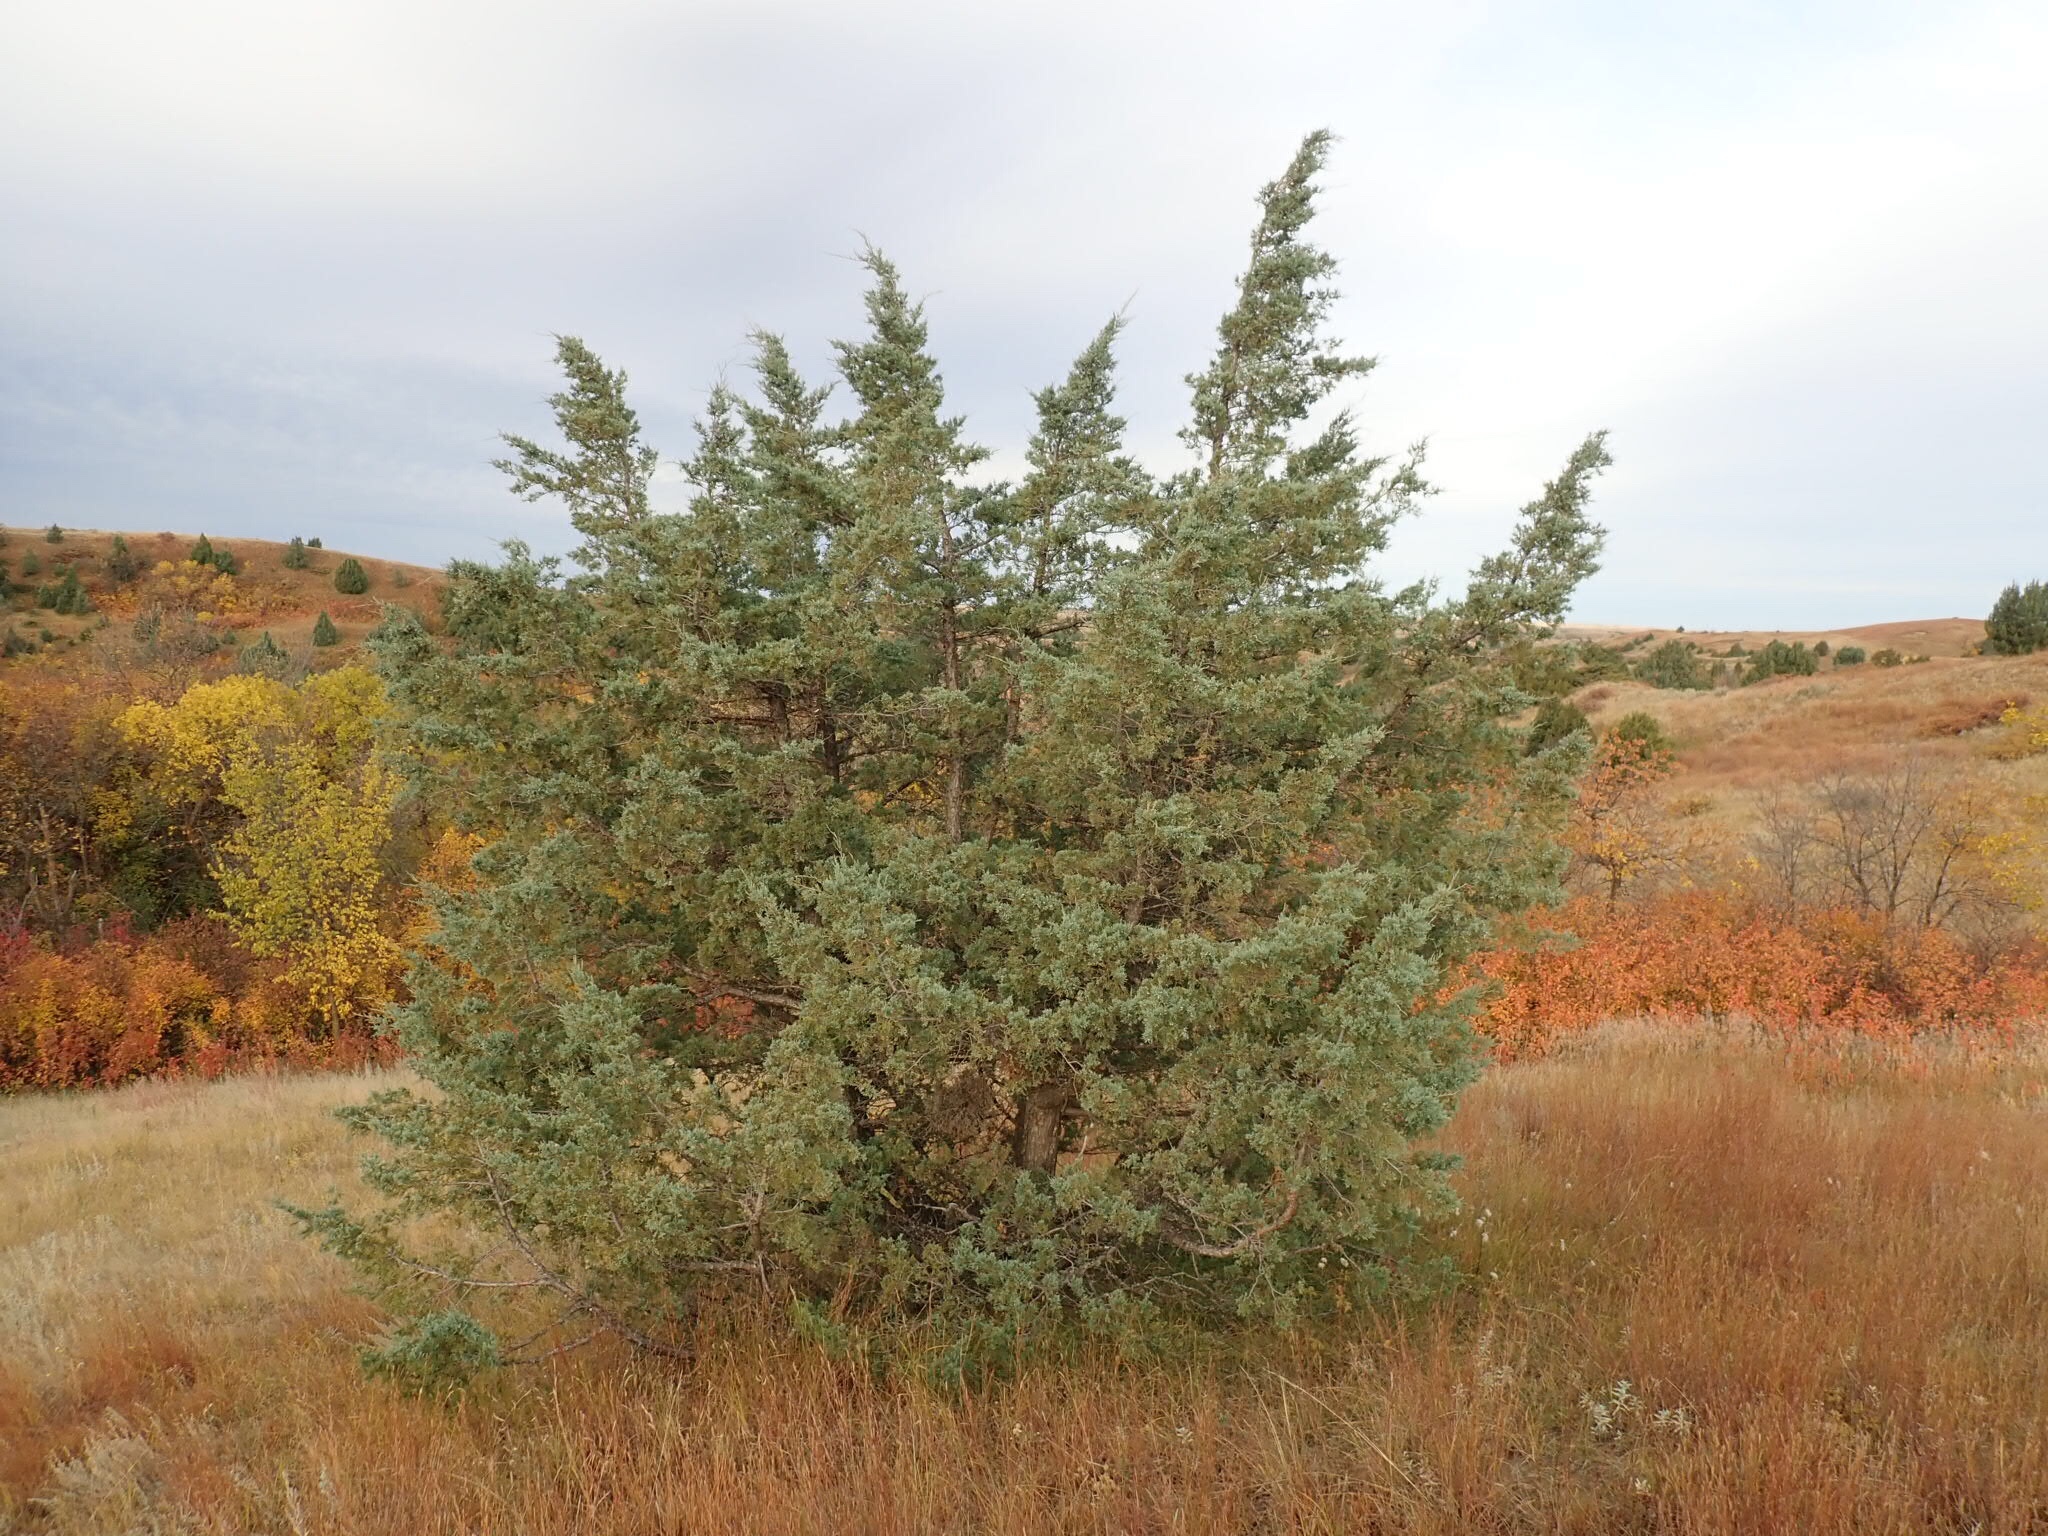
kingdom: Plantae
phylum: Tracheophyta
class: Pinopsida
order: Pinales
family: Cupressaceae
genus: Juniperus
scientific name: Juniperus scopulorum
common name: Rocky mountain juniper
